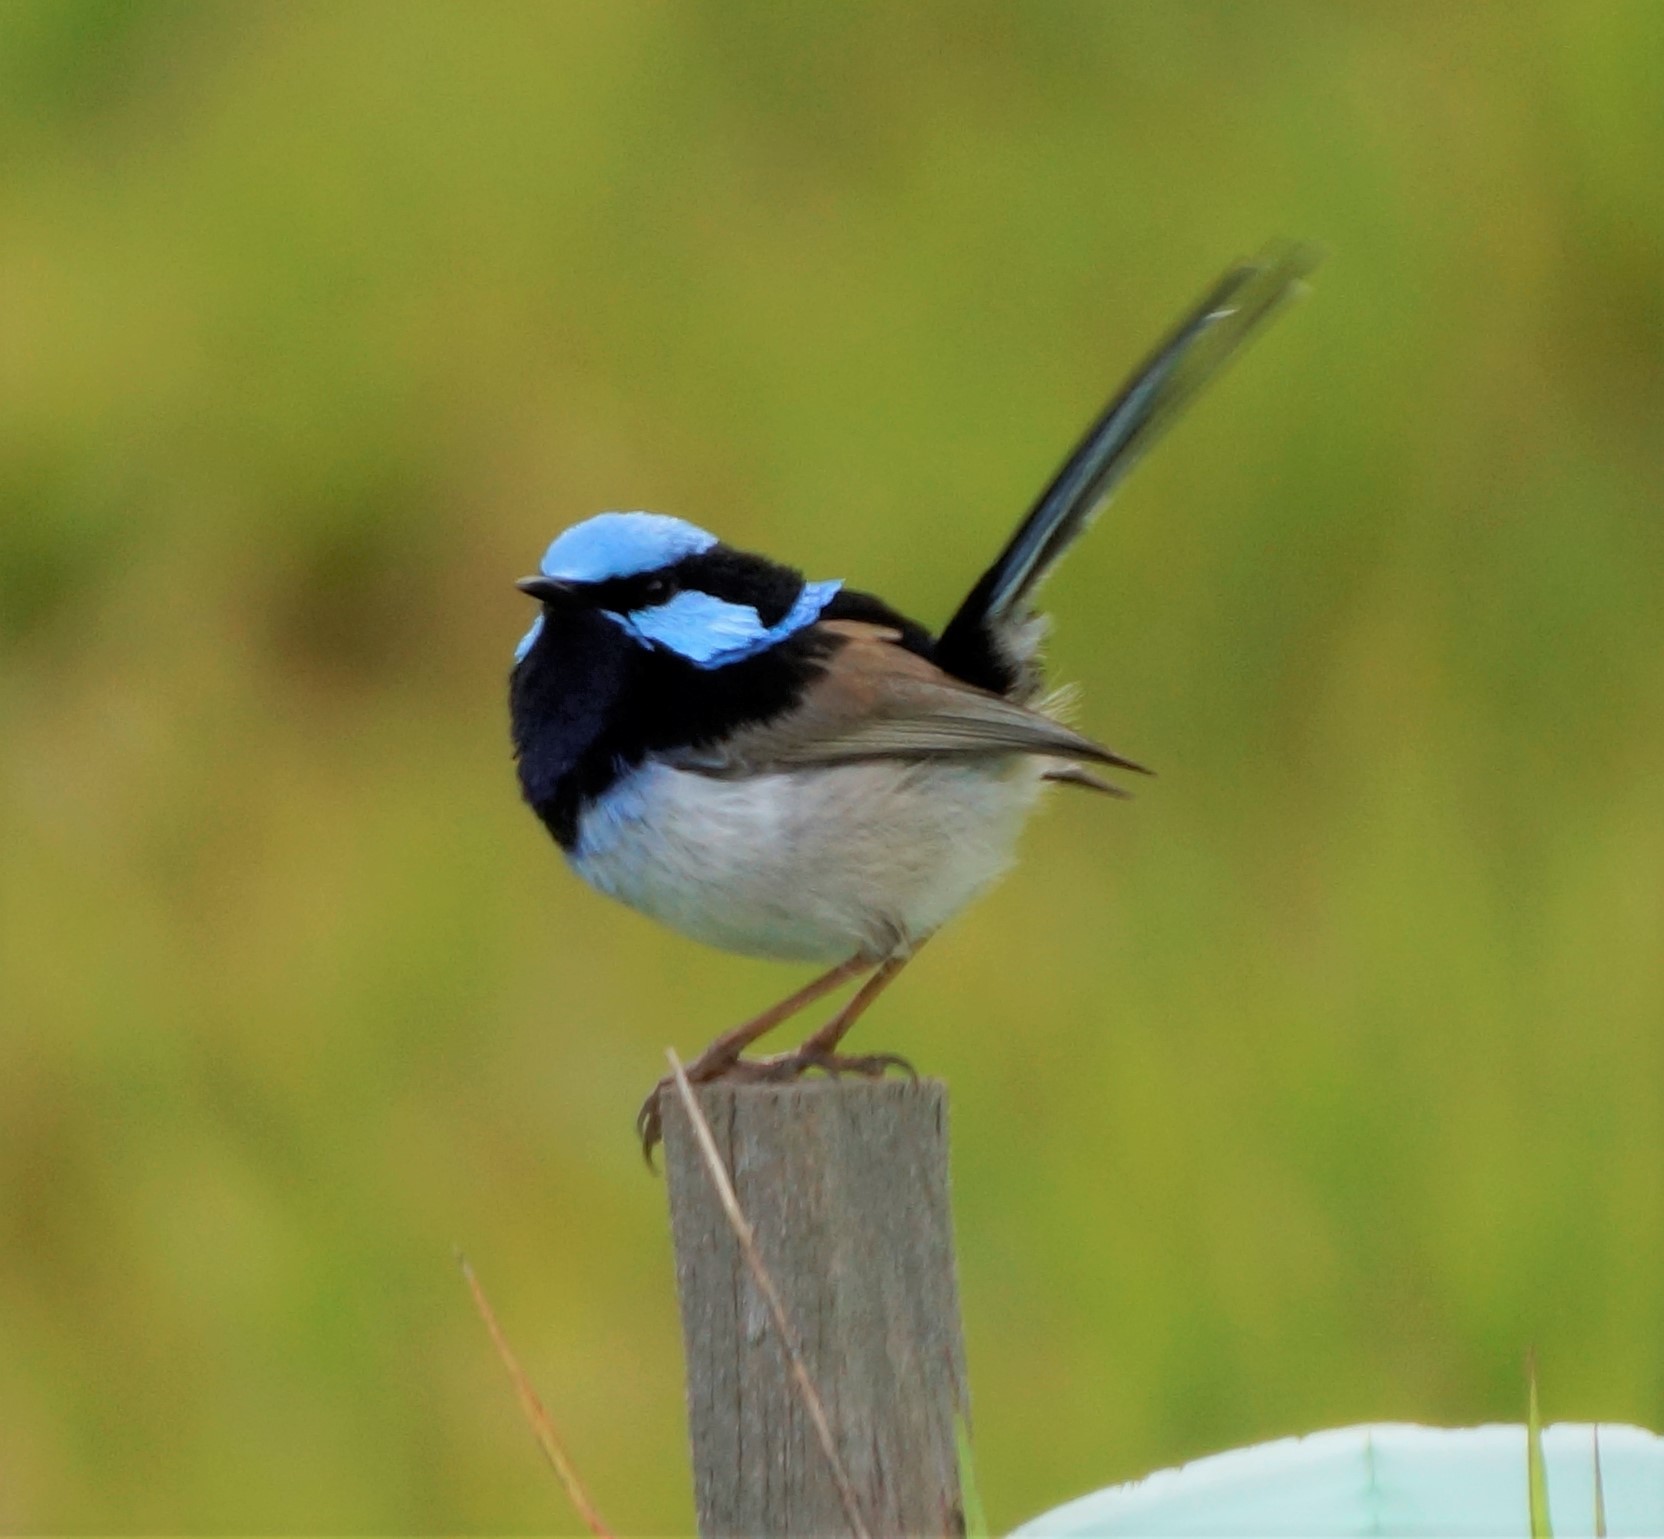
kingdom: Animalia
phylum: Chordata
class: Aves
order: Passeriformes
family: Maluridae
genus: Malurus
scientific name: Malurus cyaneus
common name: Superb fairywren
